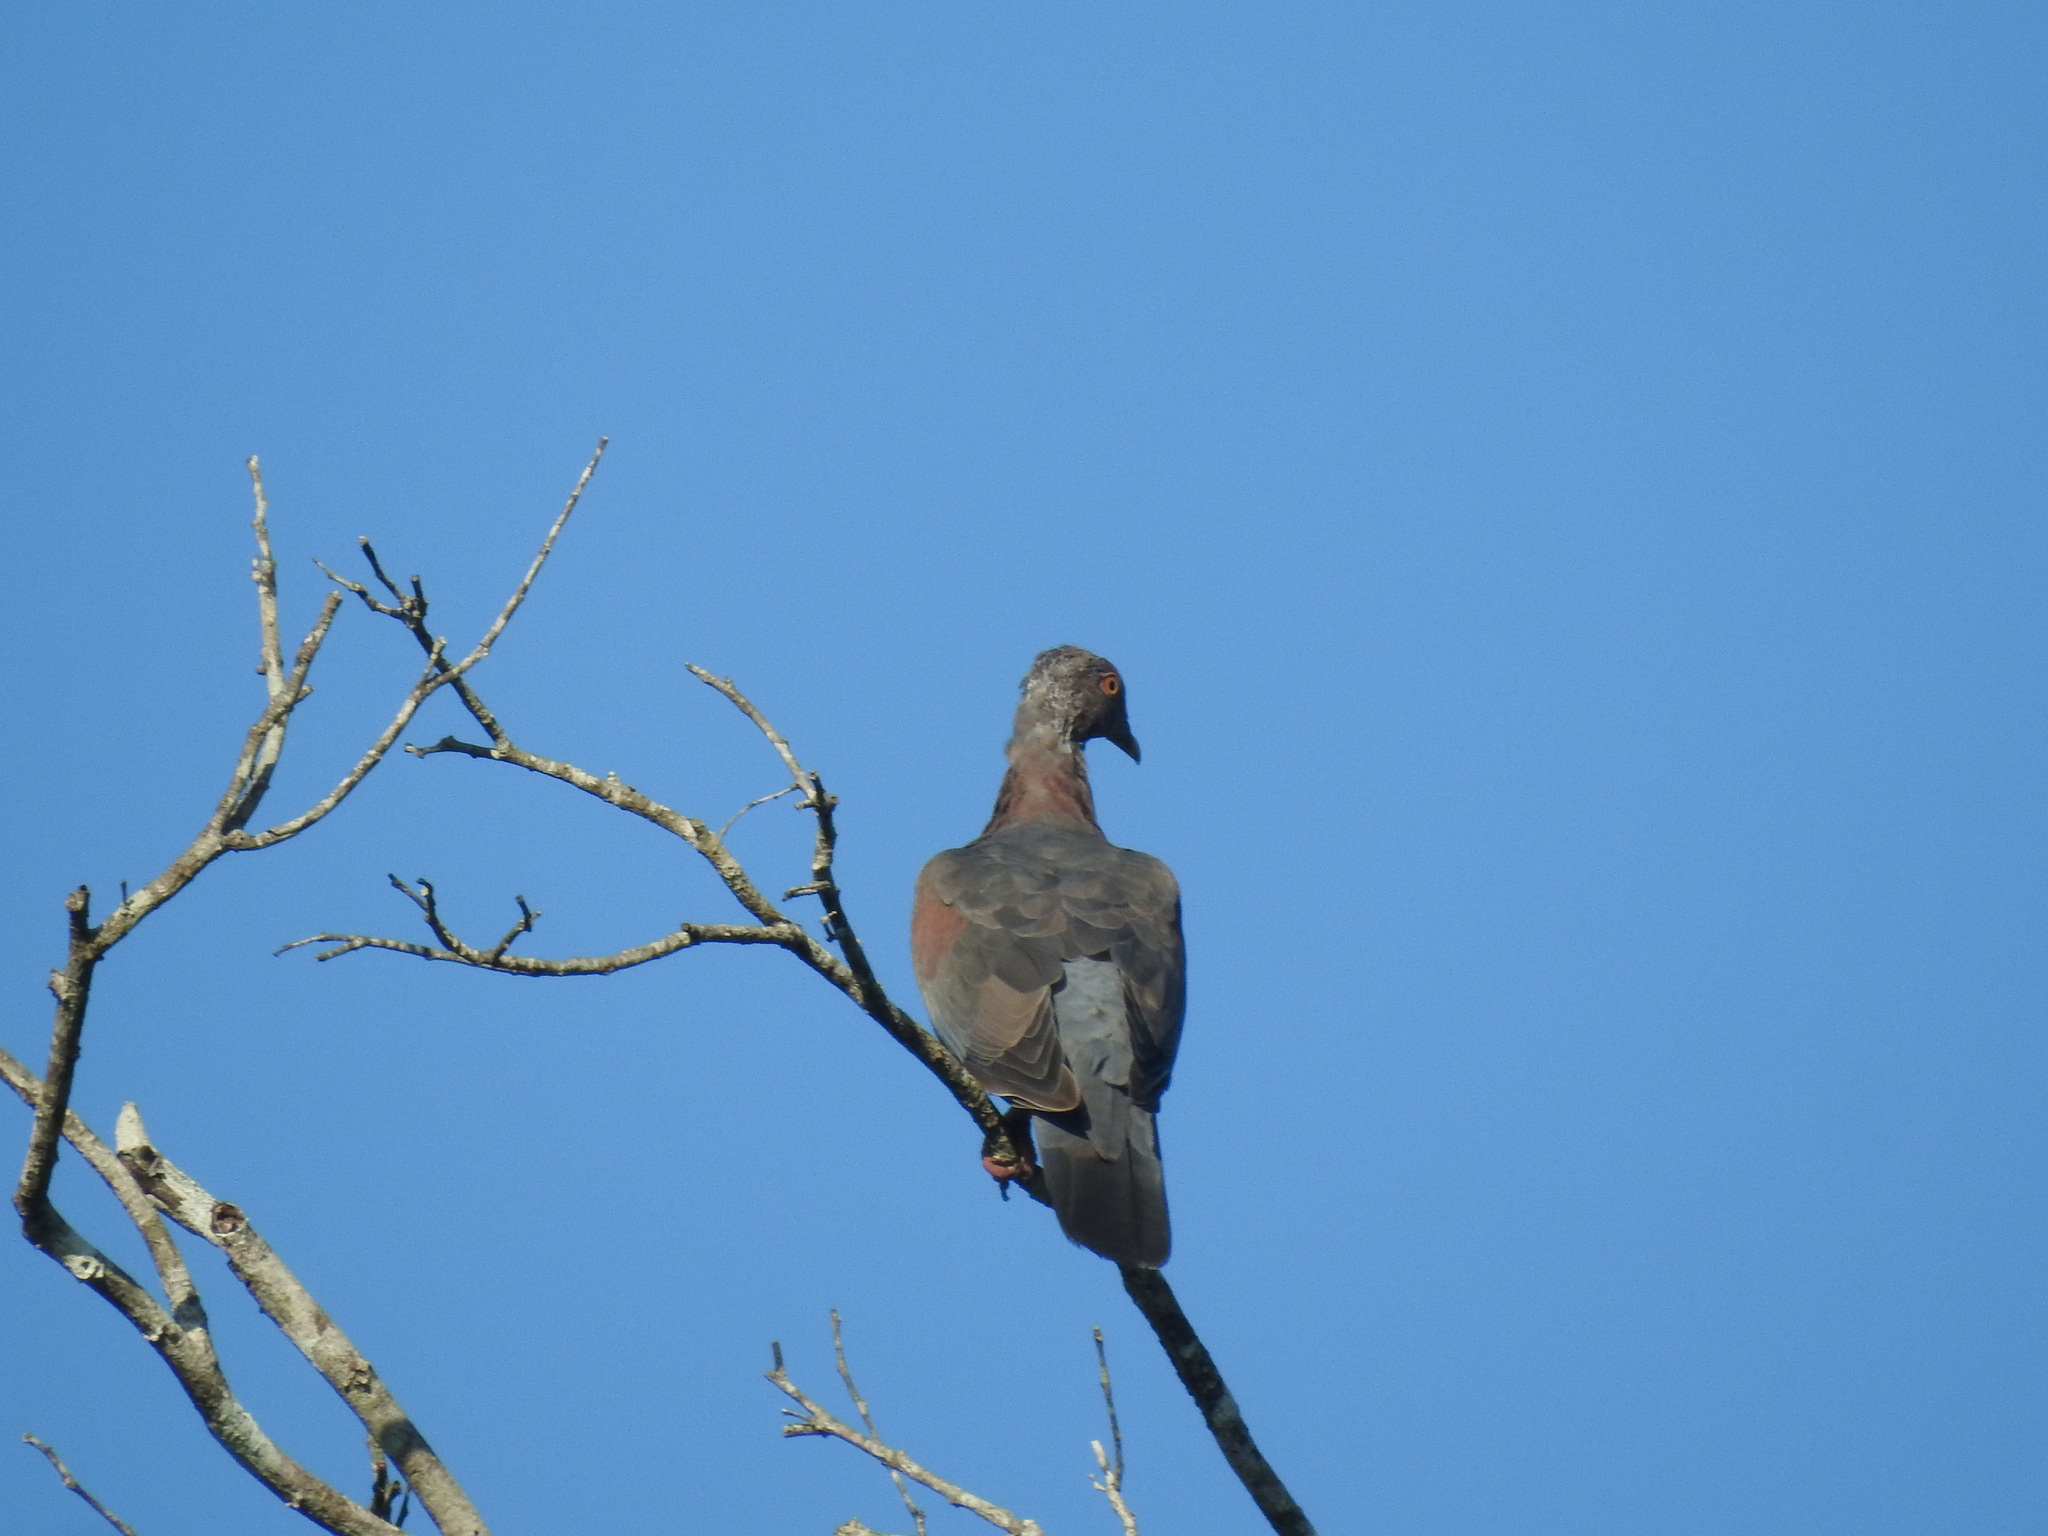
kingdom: Animalia
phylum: Chordata
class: Aves
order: Columbiformes
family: Columbidae
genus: Patagioenas
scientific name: Patagioenas flavirostris
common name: Red-billed pigeon
